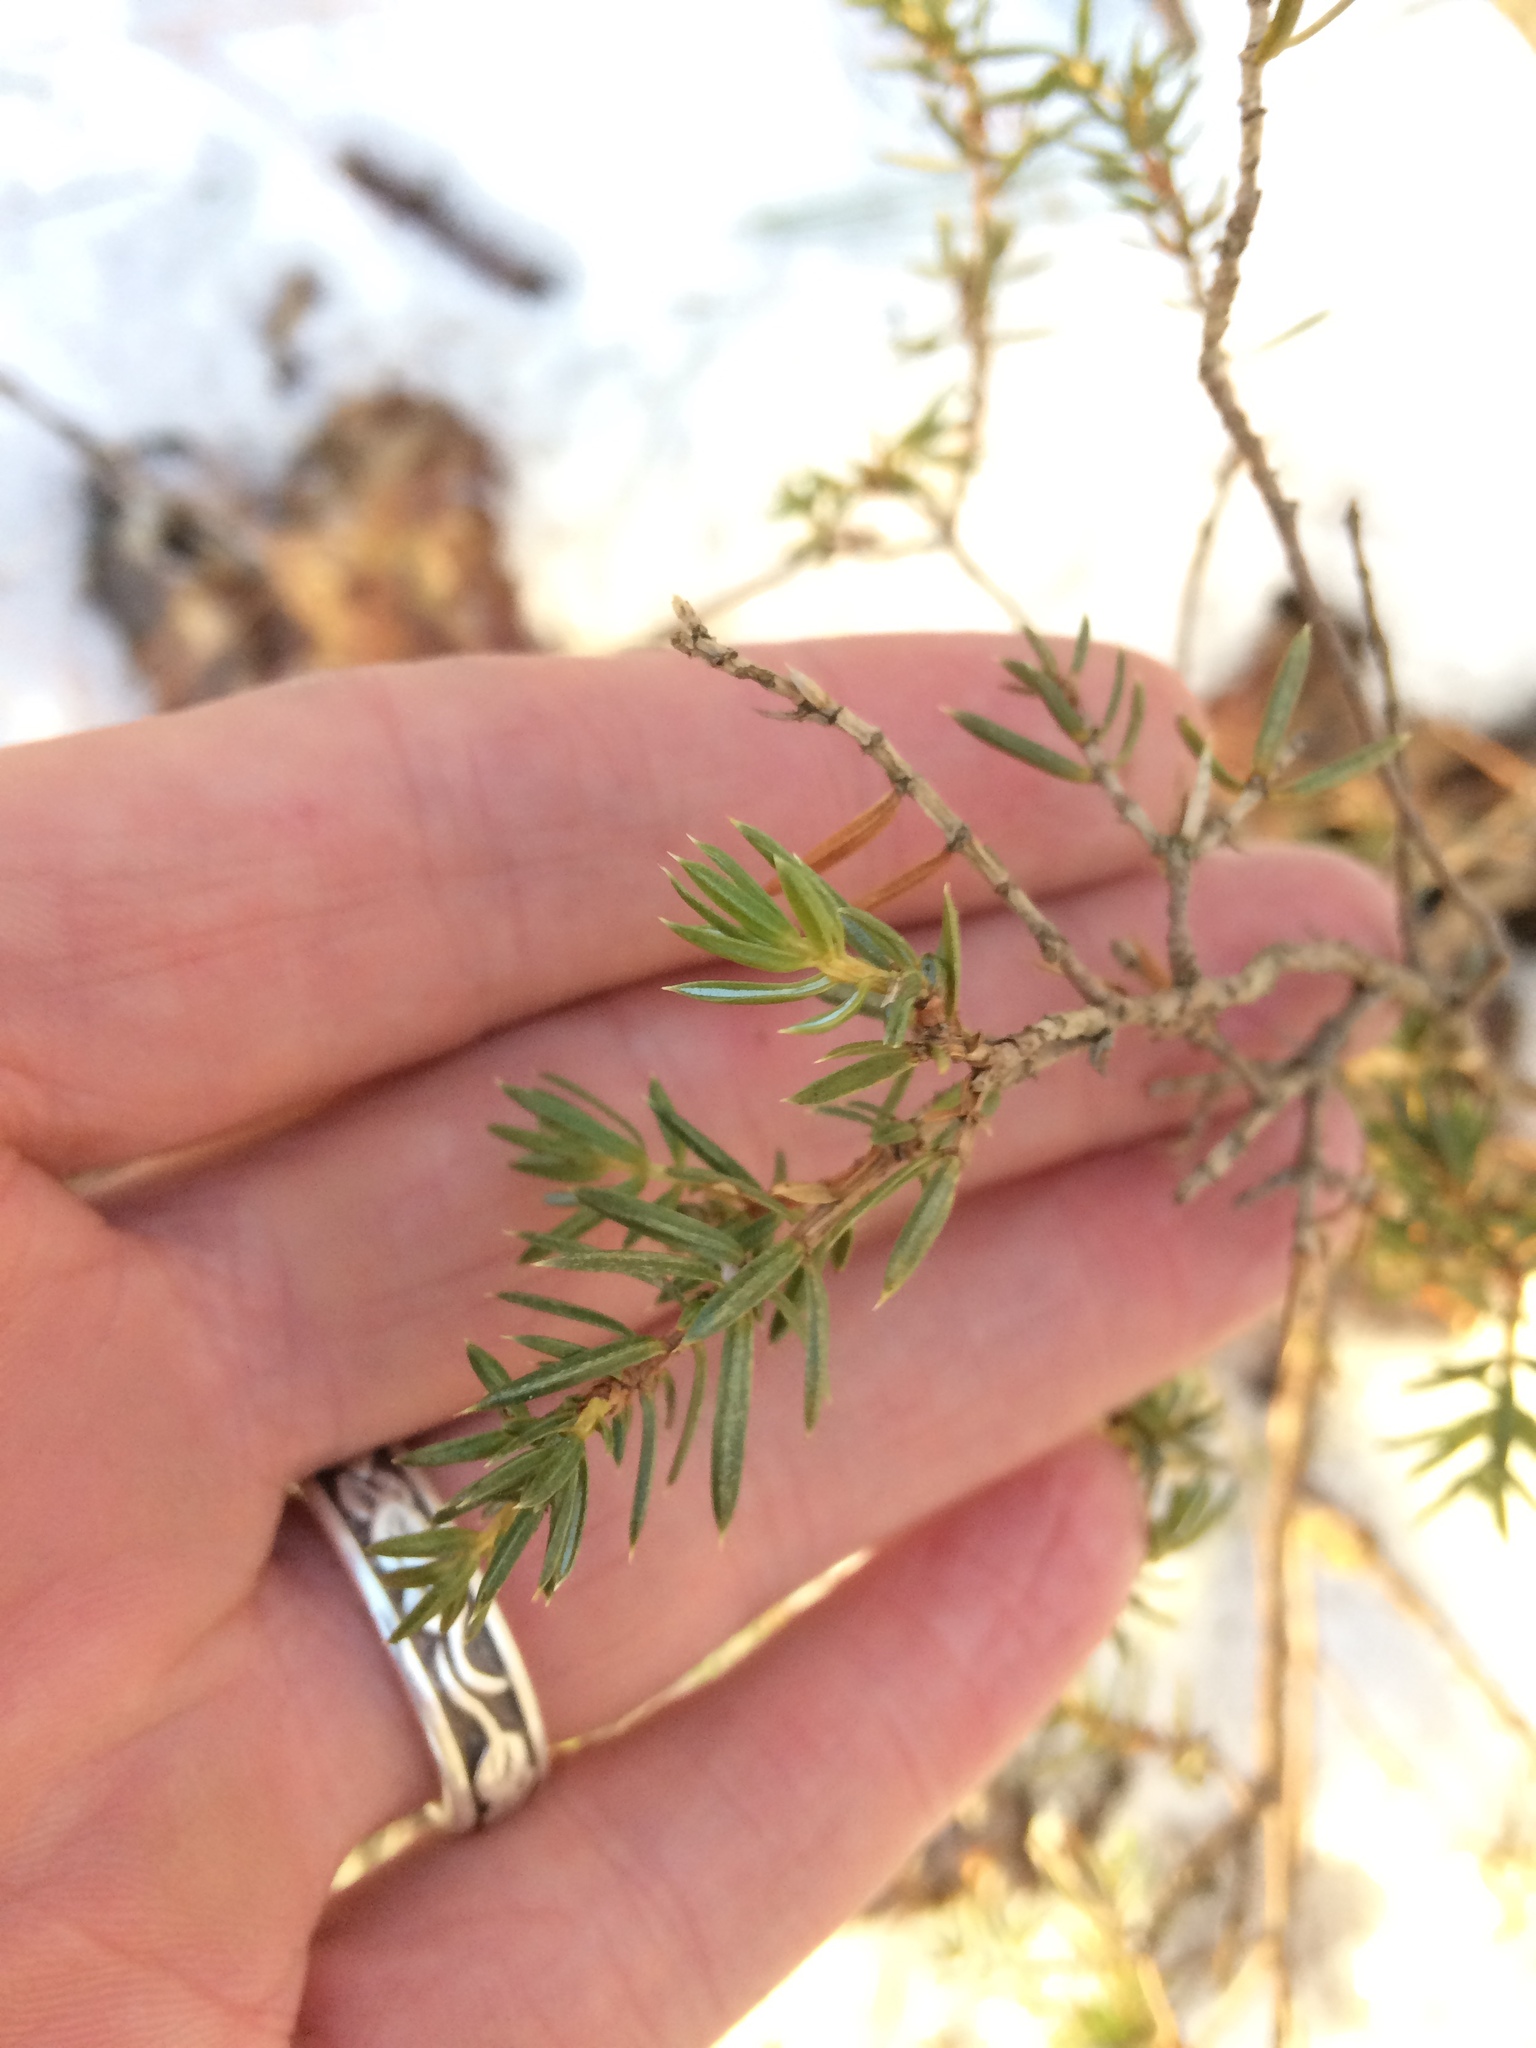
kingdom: Plantae
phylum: Tracheophyta
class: Pinopsida
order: Pinales
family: Cupressaceae
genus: Juniperus
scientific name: Juniperus communis
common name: Common juniper
